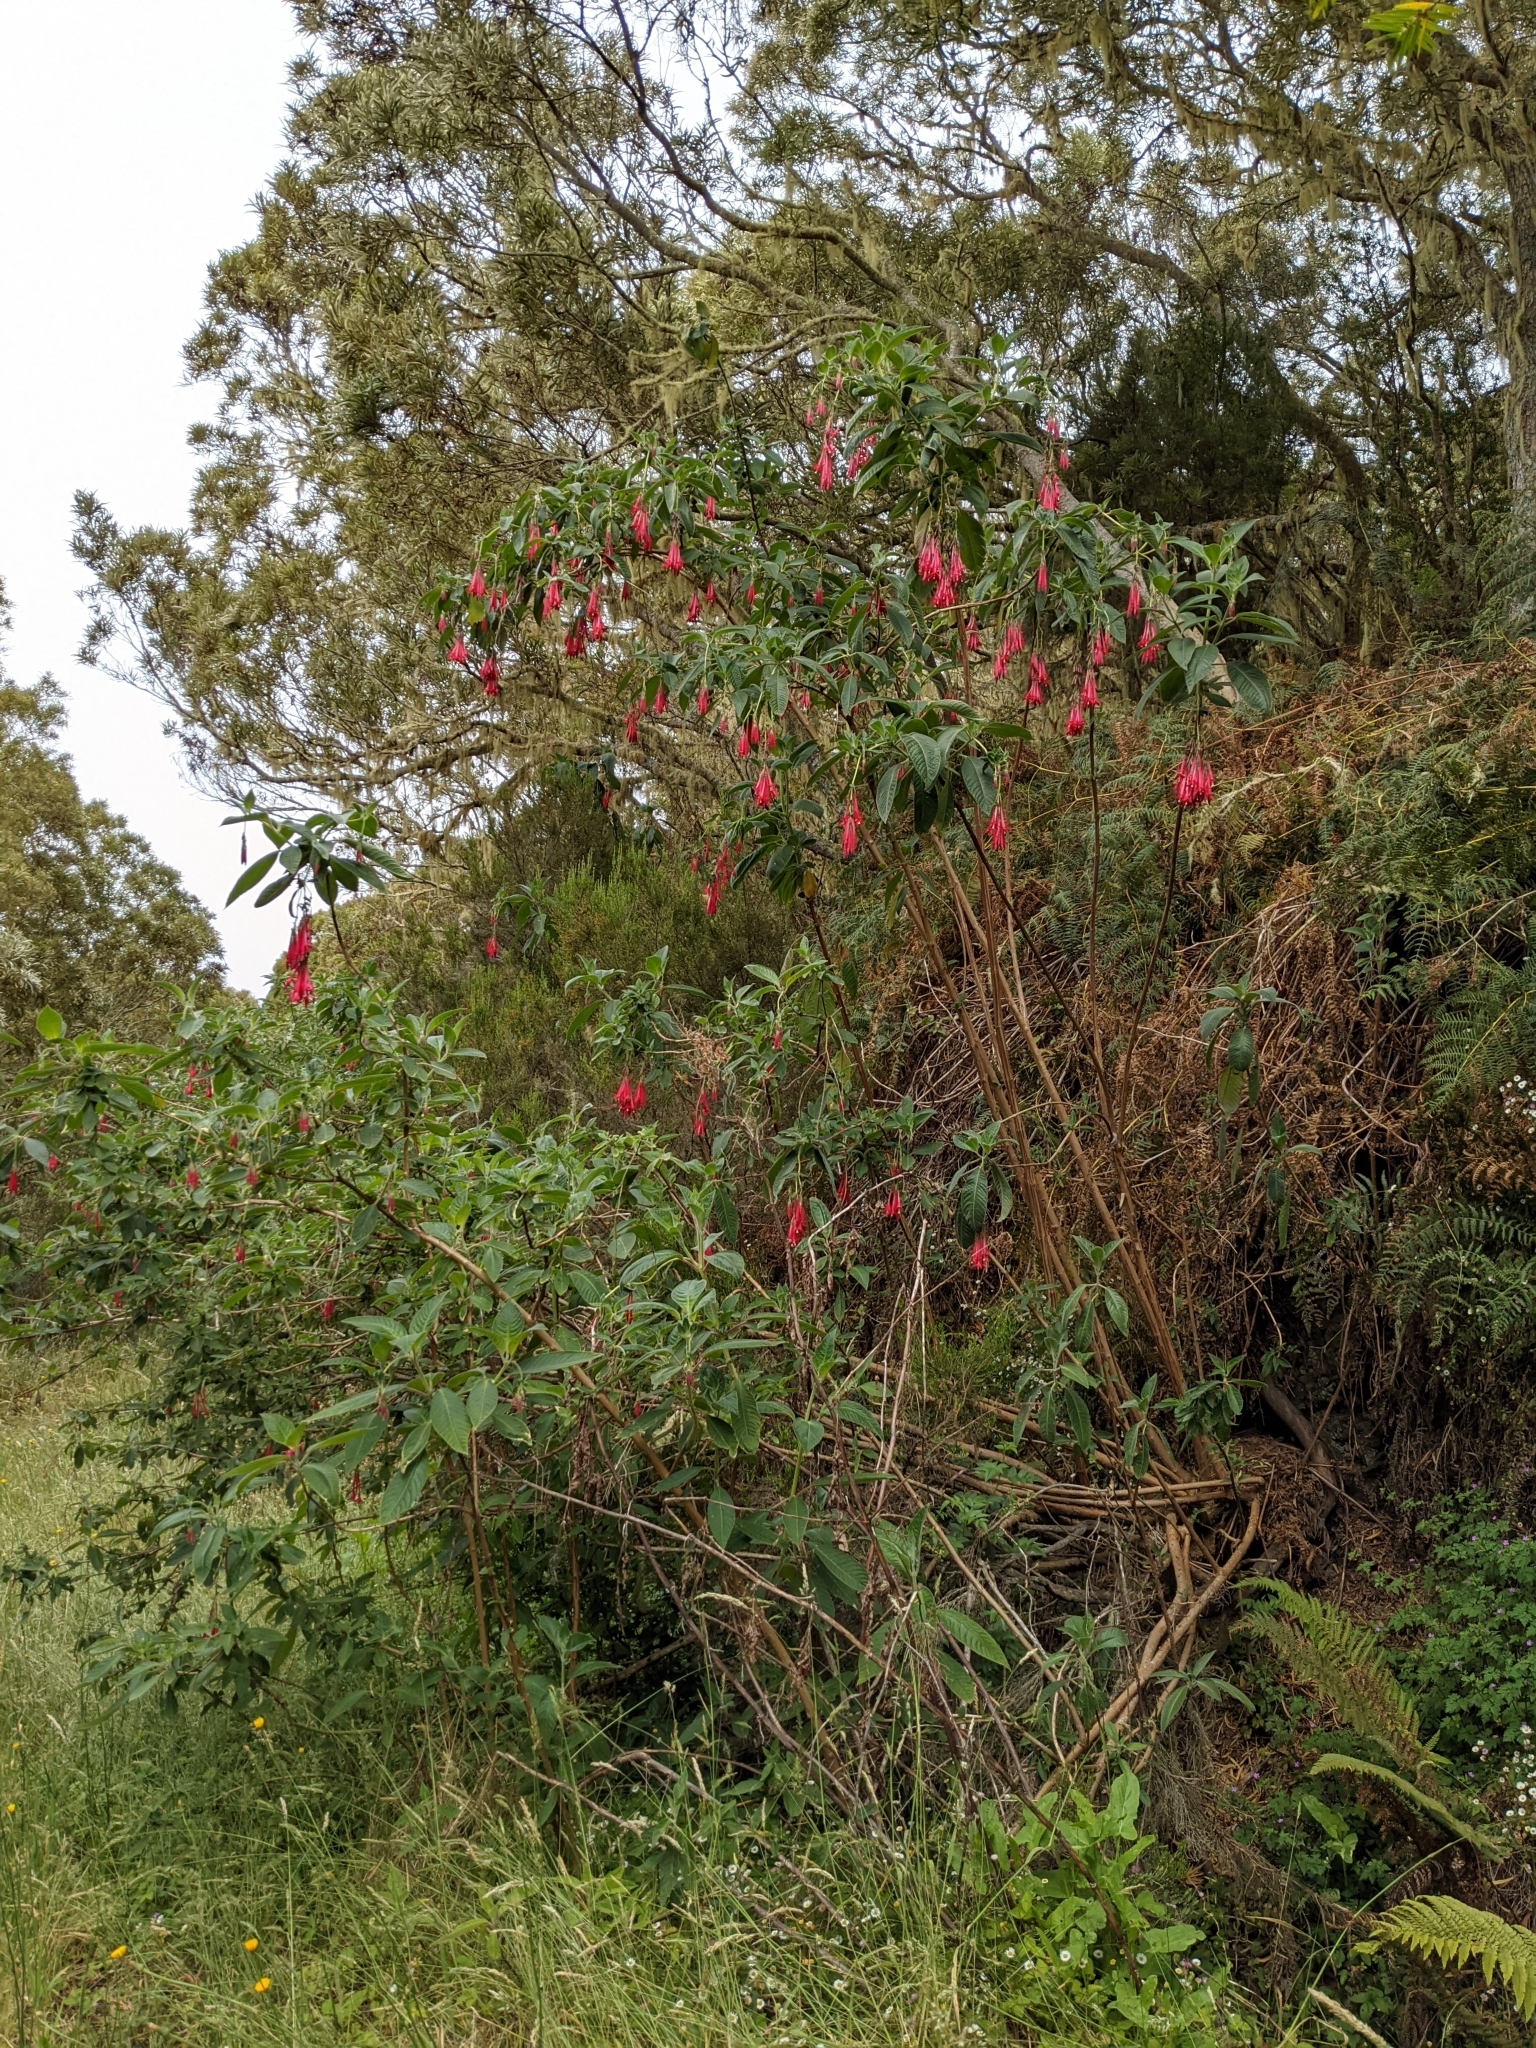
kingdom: Plantae
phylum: Tracheophyta
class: Magnoliopsida
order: Myrtales
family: Onagraceae
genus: Fuchsia
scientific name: Fuchsia boliviana
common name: Bolivian fuchsia
